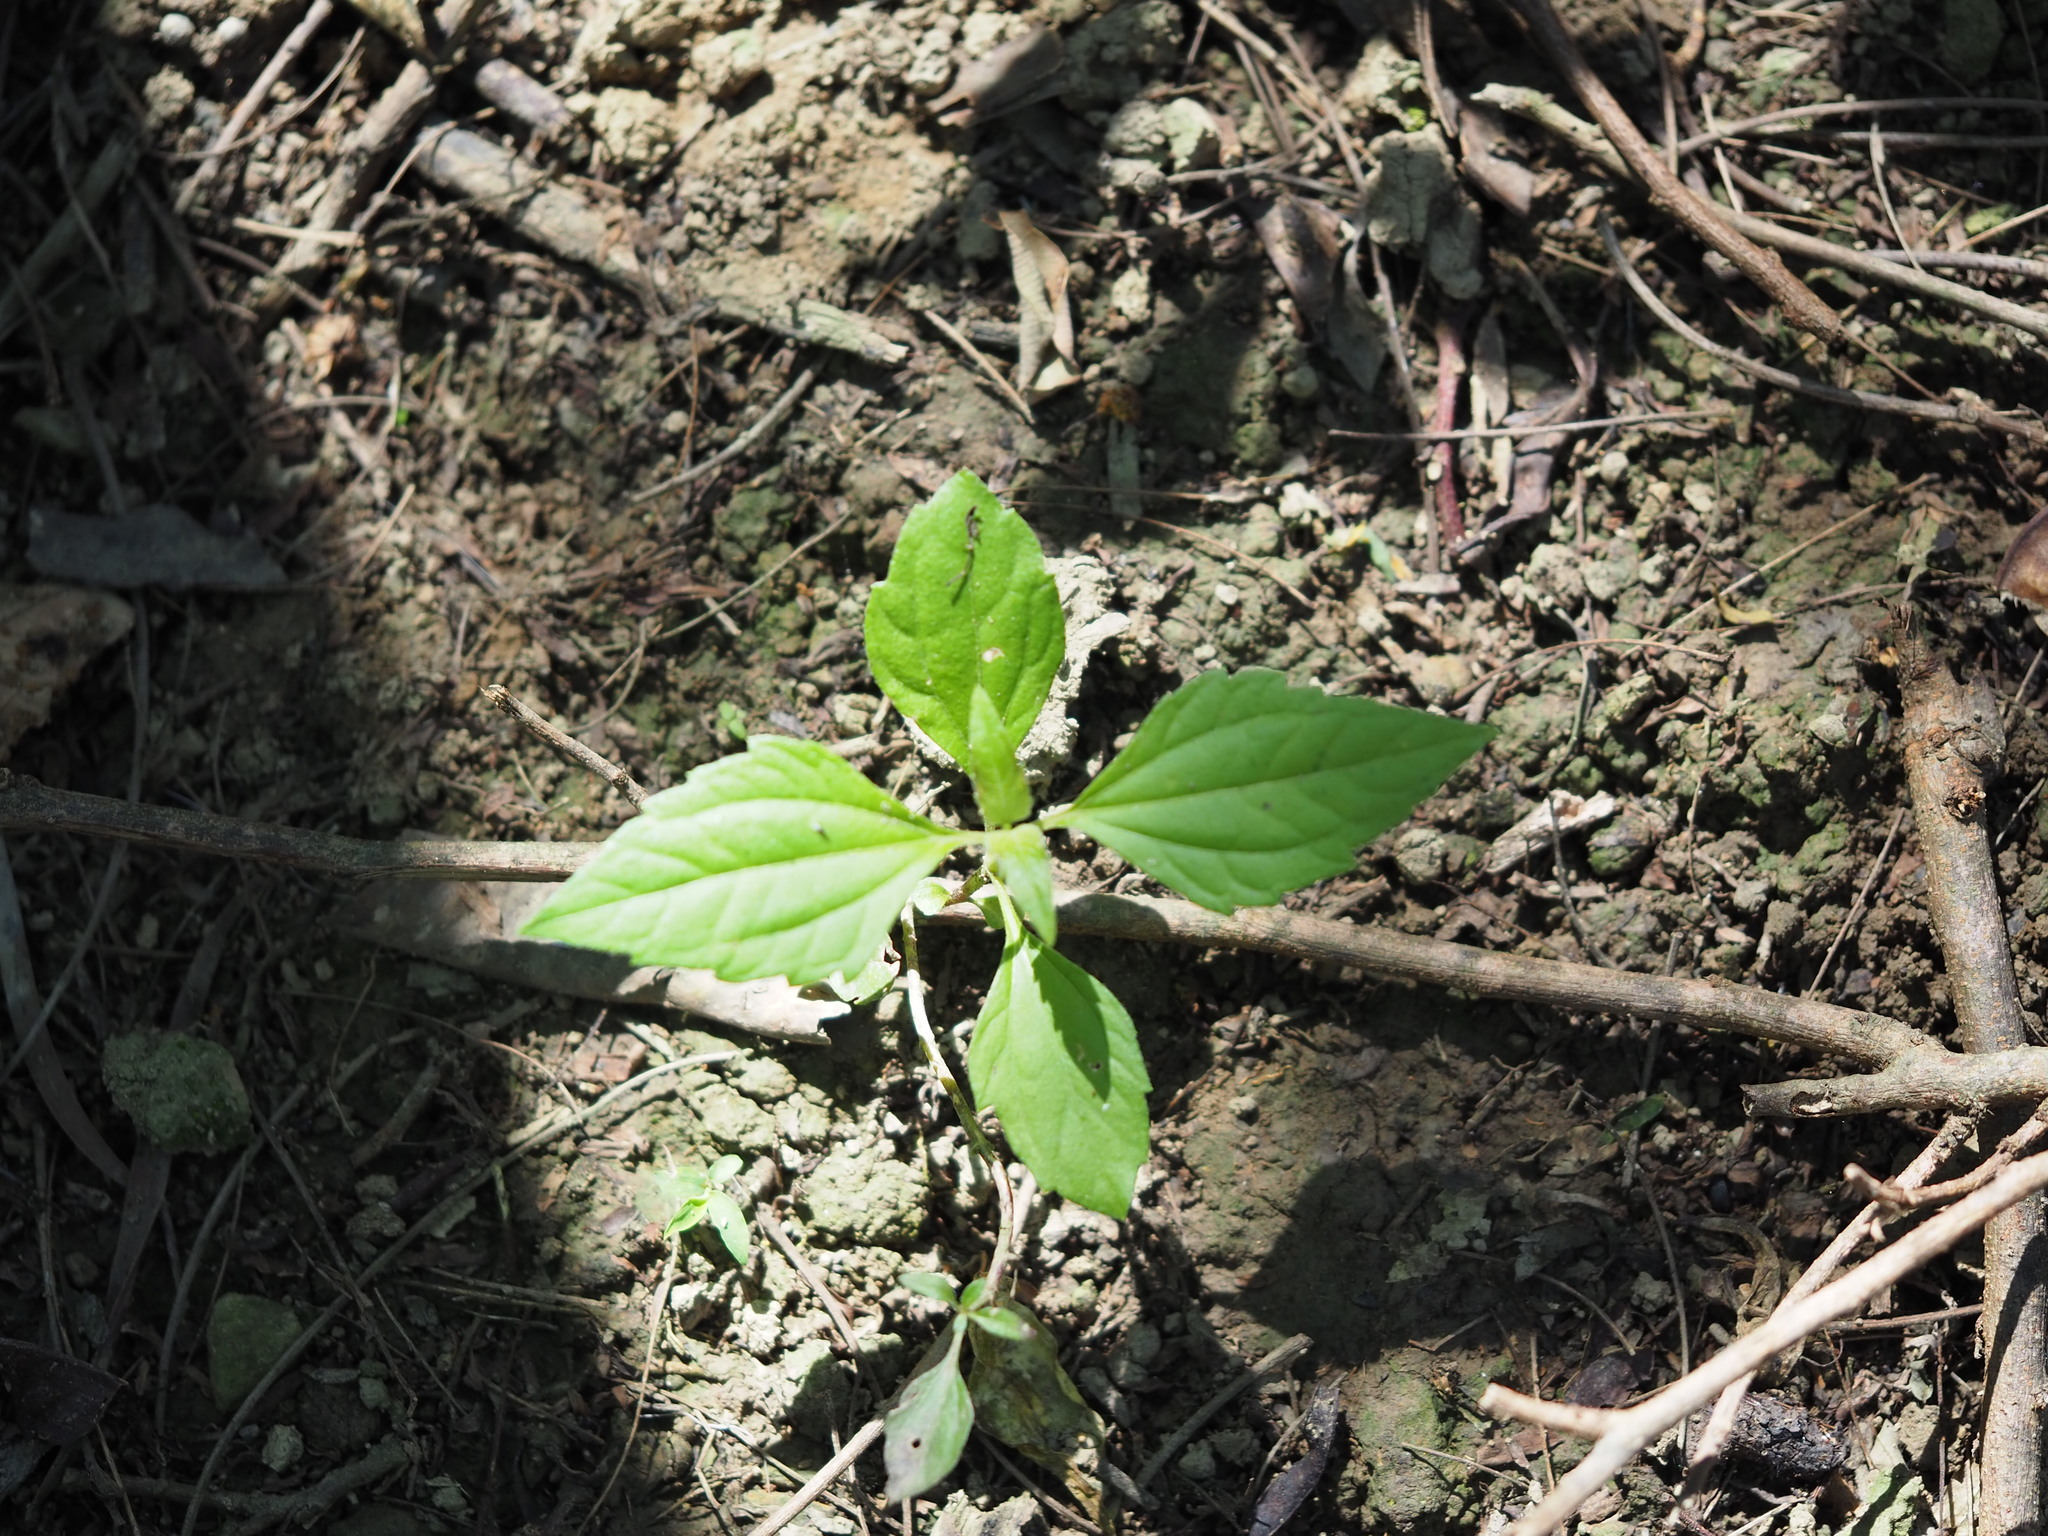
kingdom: Plantae
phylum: Tracheophyta
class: Magnoliopsida
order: Asterales
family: Asteraceae
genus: Chromolaena
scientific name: Chromolaena odorata
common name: Siamweed
